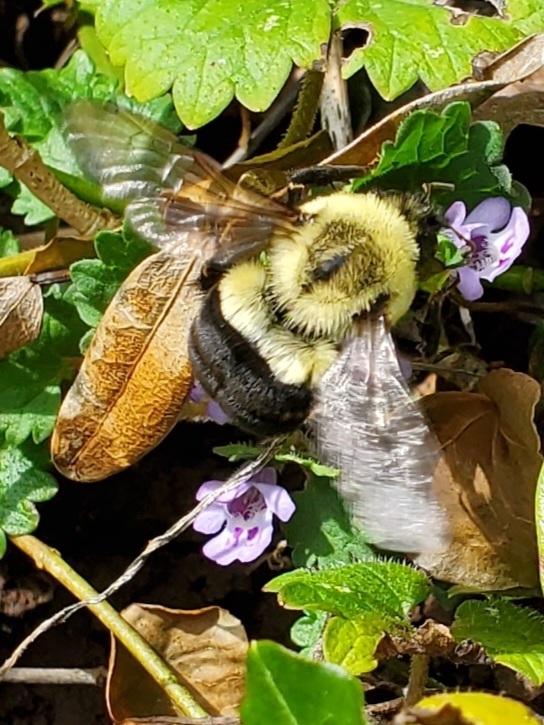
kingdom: Animalia
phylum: Arthropoda
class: Insecta
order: Hymenoptera
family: Apidae
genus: Bombus
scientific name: Bombus impatiens
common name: Common eastern bumble bee
